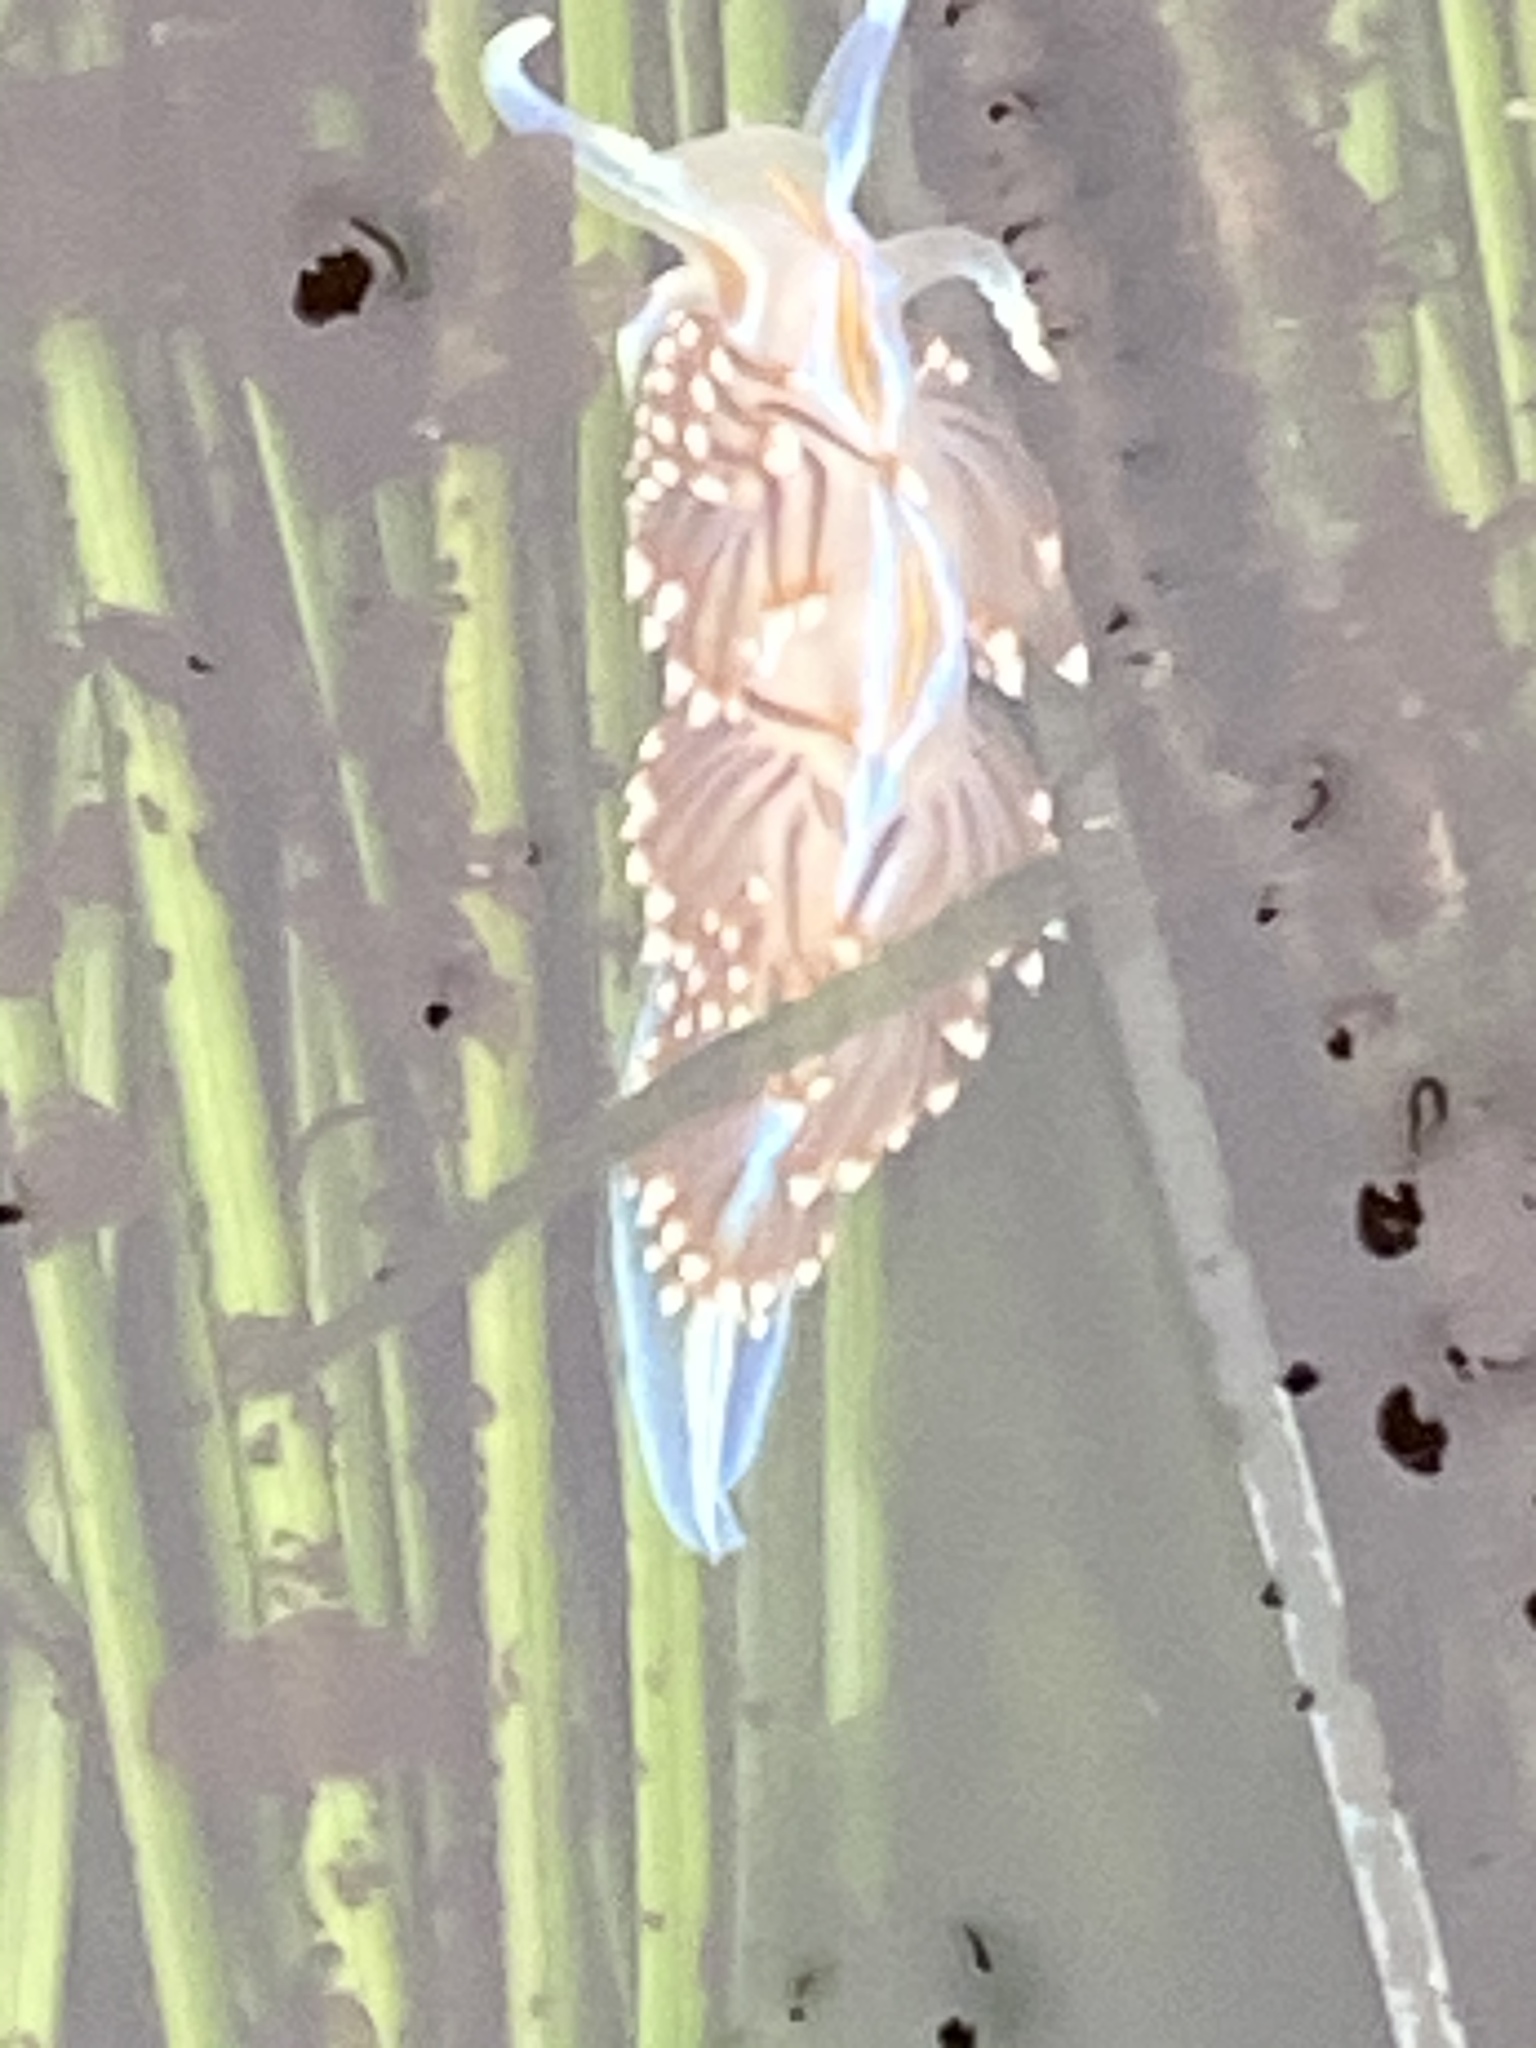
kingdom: Animalia
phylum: Mollusca
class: Gastropoda
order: Nudibranchia
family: Myrrhinidae
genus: Hermissenda
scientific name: Hermissenda opalescens
